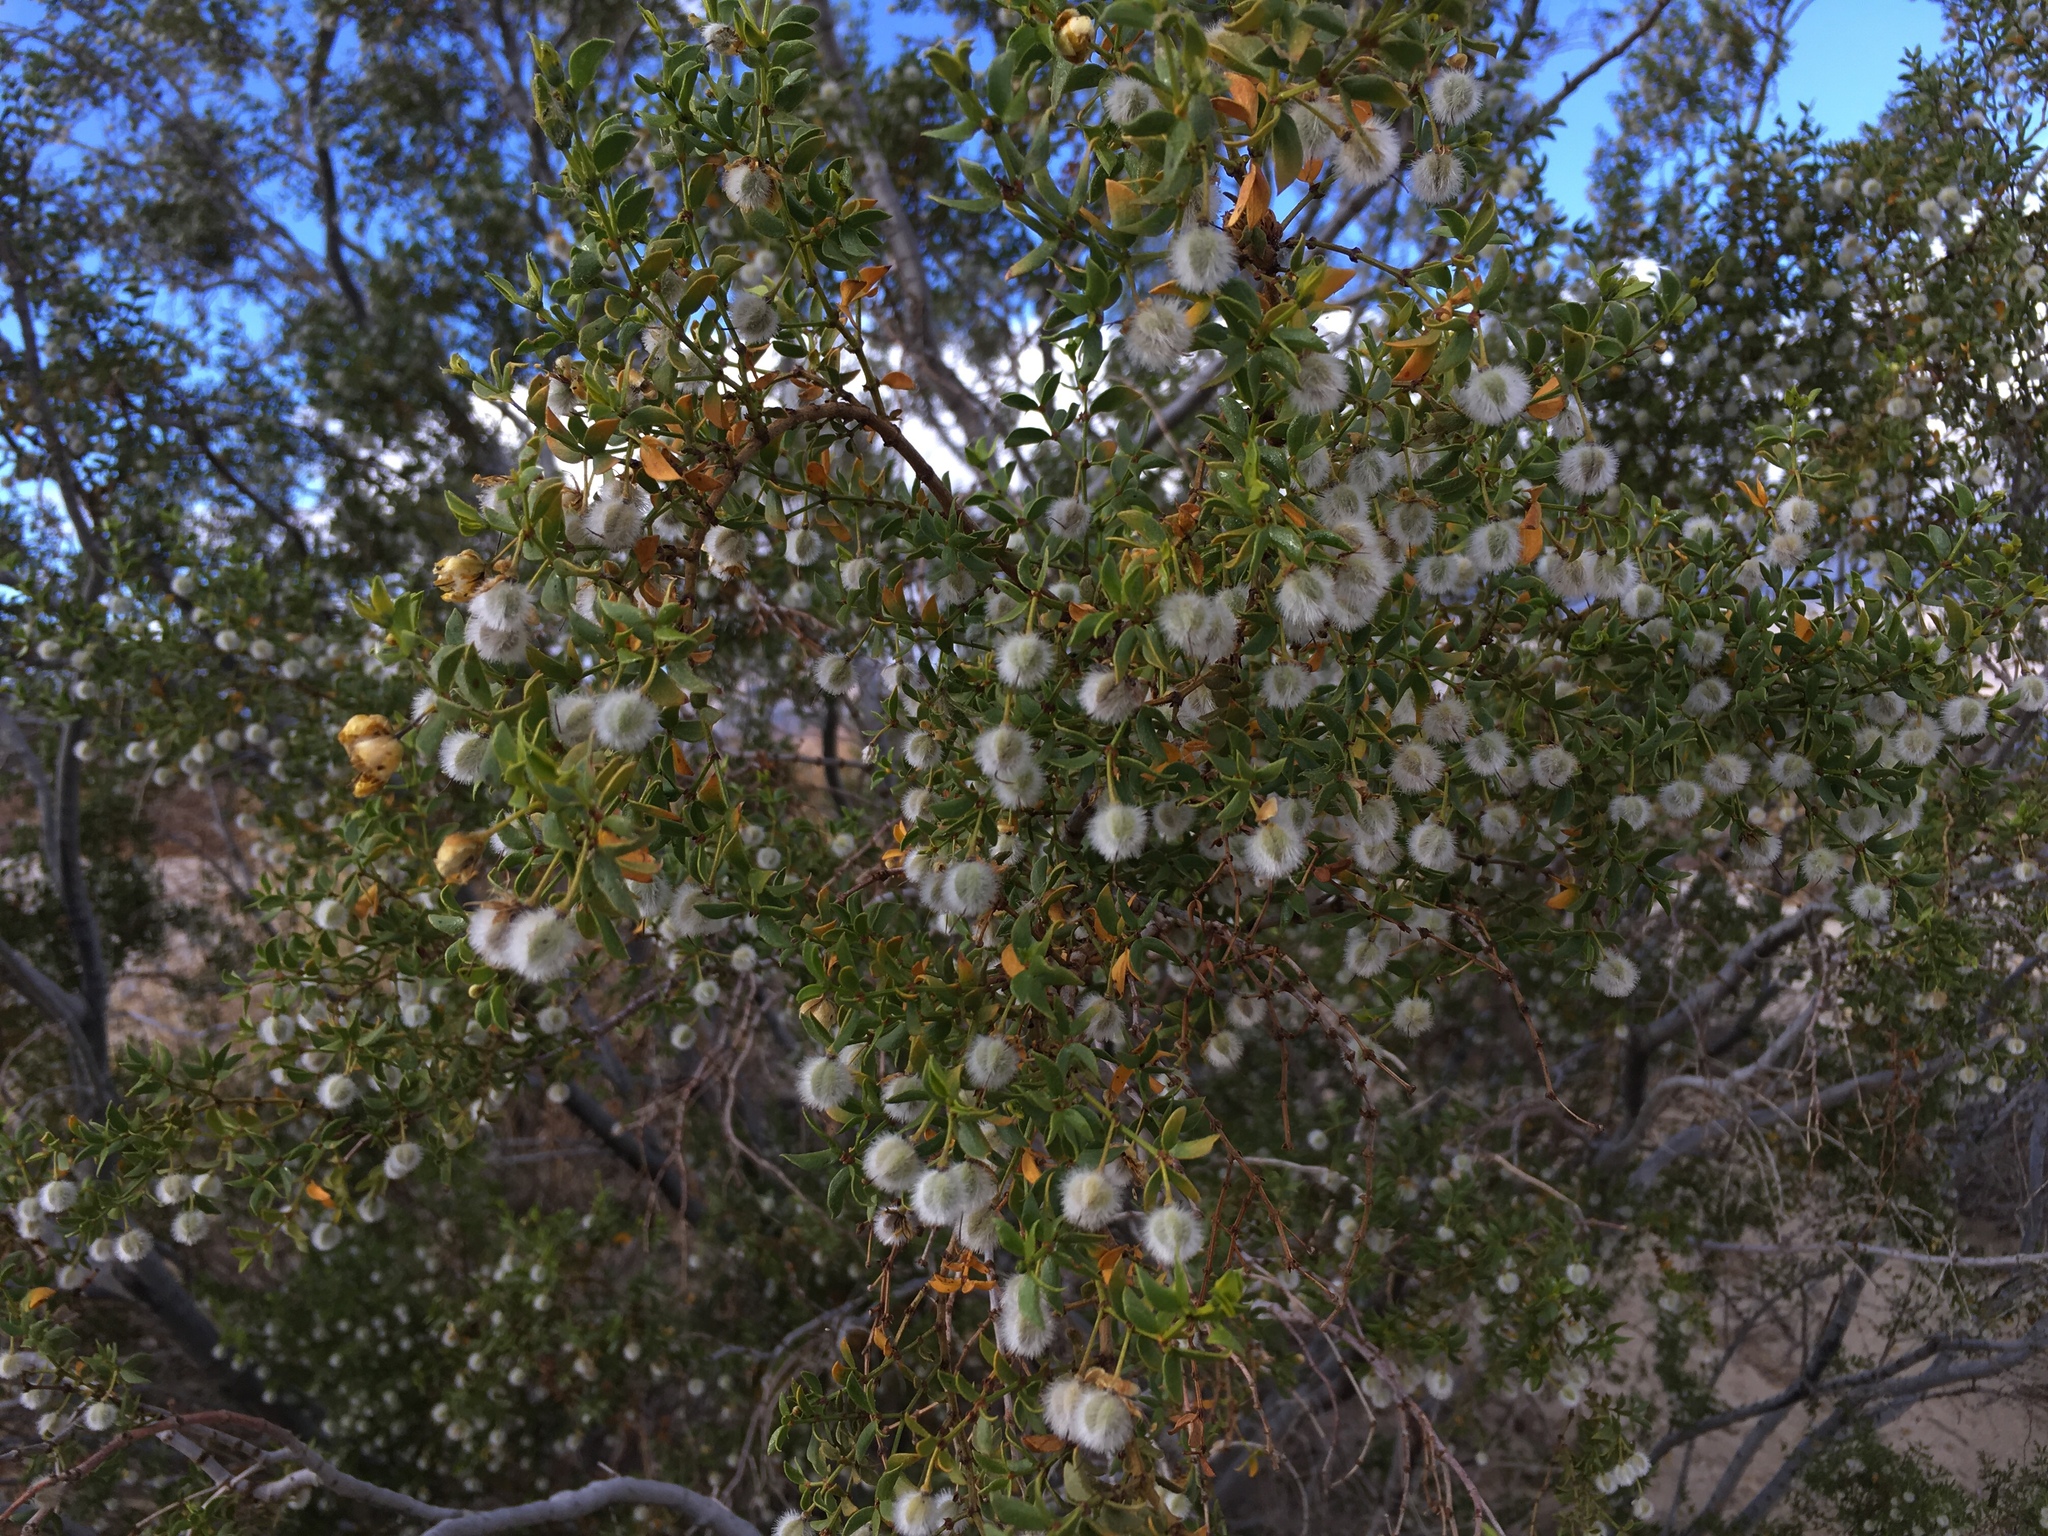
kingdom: Plantae
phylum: Tracheophyta
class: Magnoliopsida
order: Zygophyllales
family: Zygophyllaceae
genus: Larrea
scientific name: Larrea tridentata
